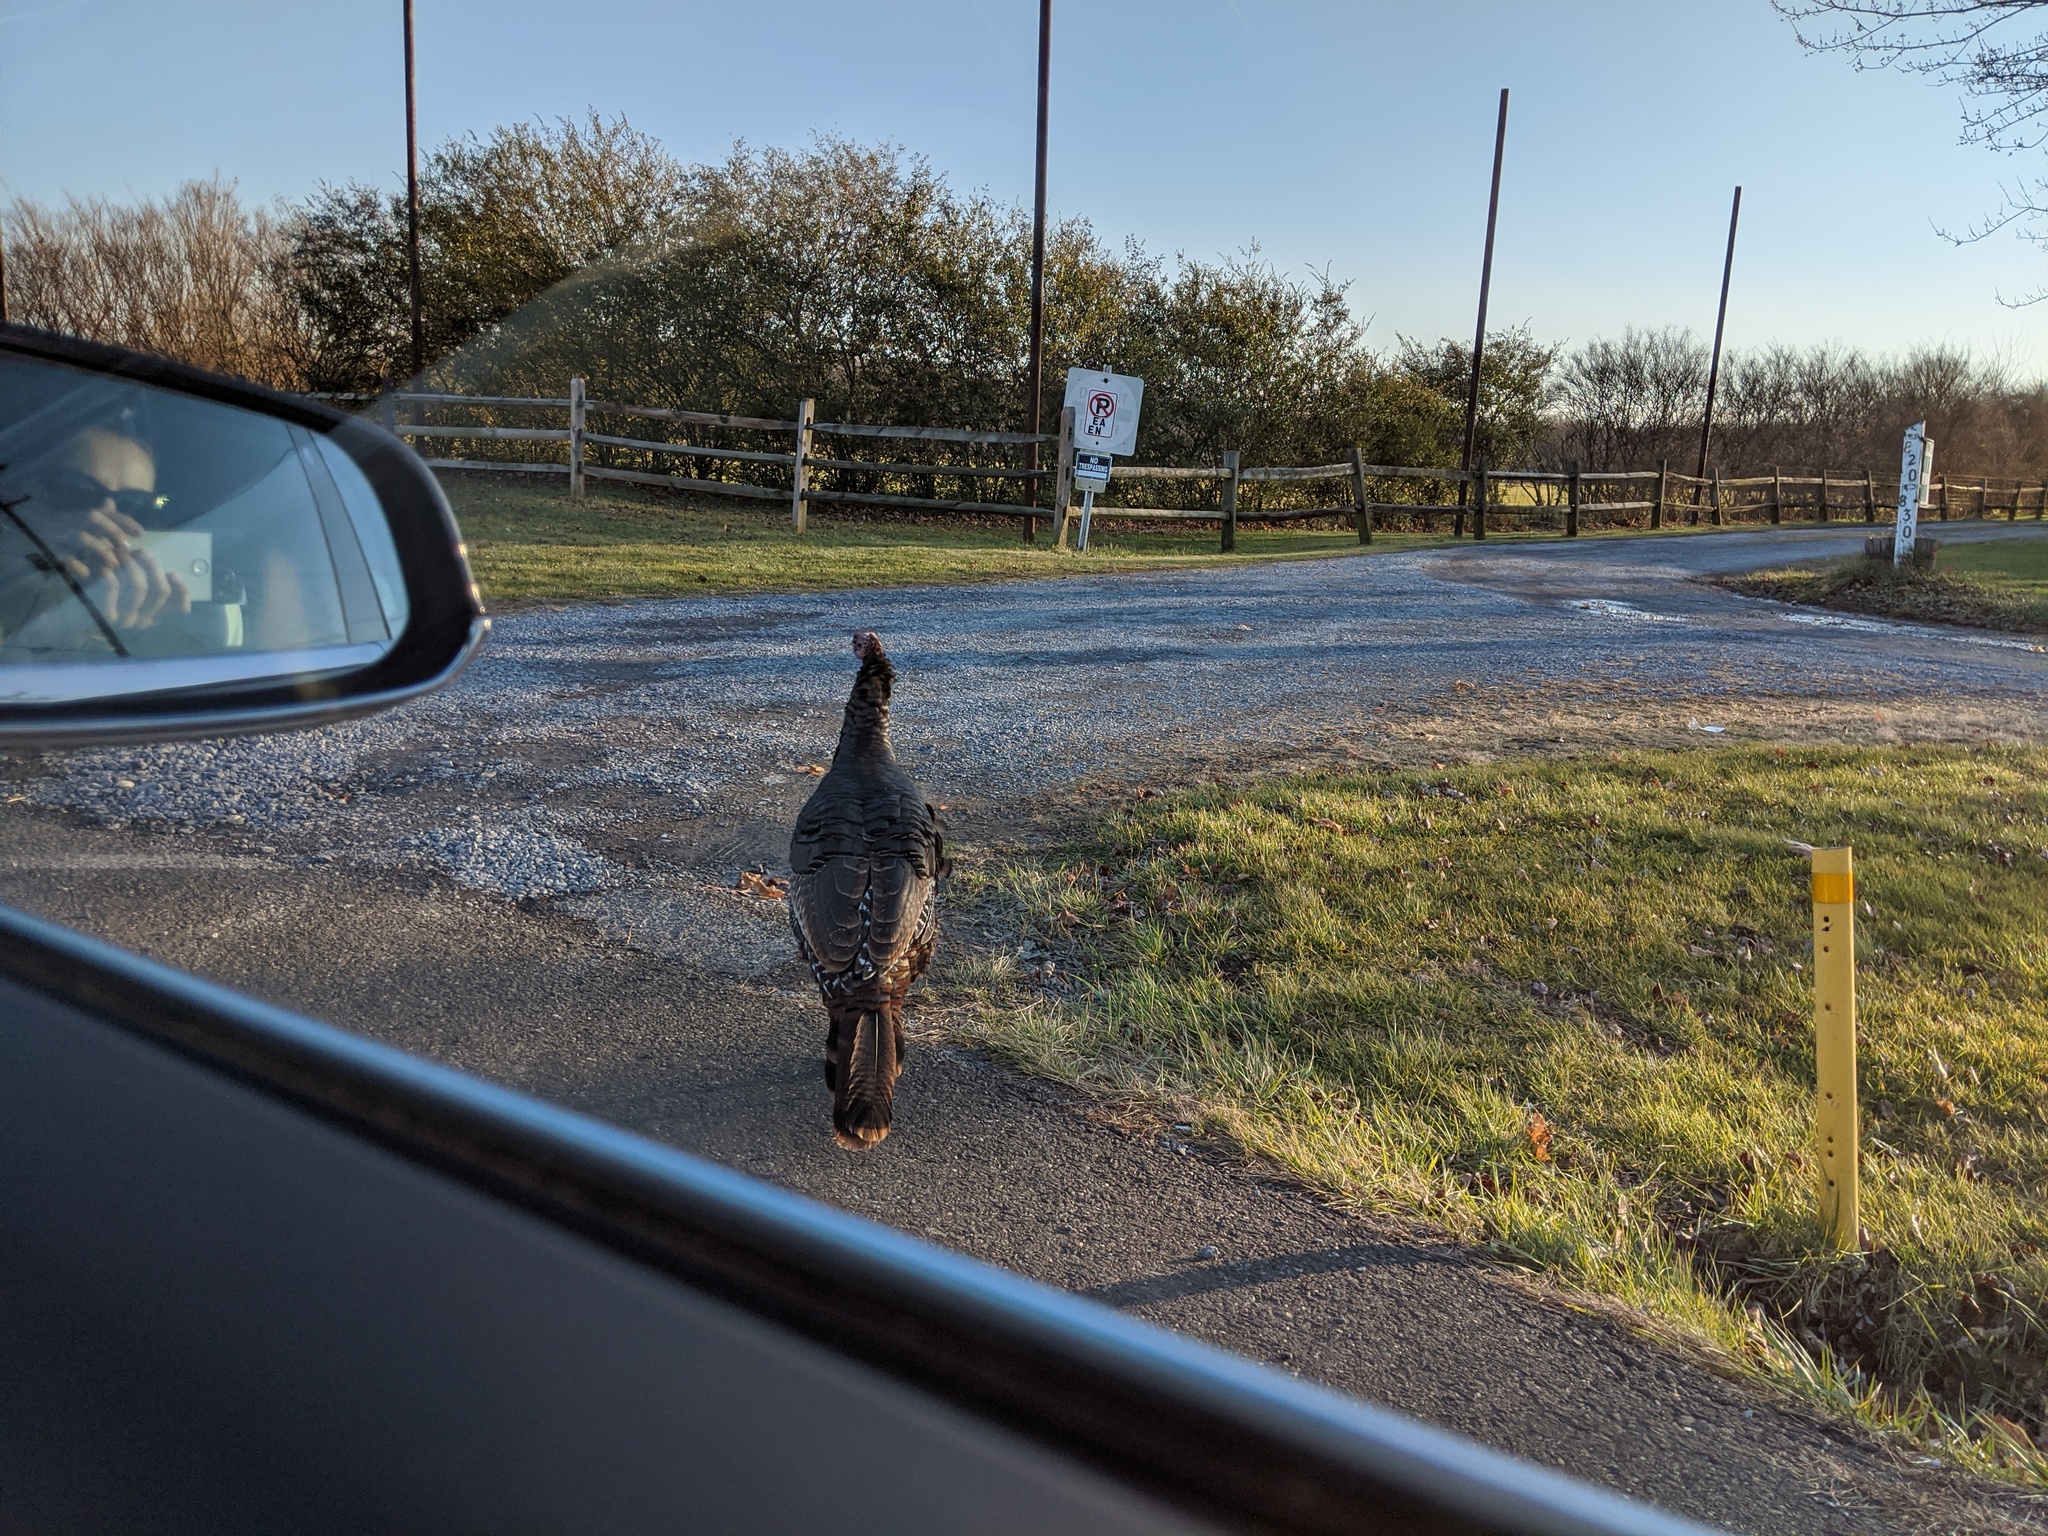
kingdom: Animalia
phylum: Chordata
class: Aves
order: Galliformes
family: Phasianidae
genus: Meleagris
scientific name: Meleagris gallopavo
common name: Wild turkey
